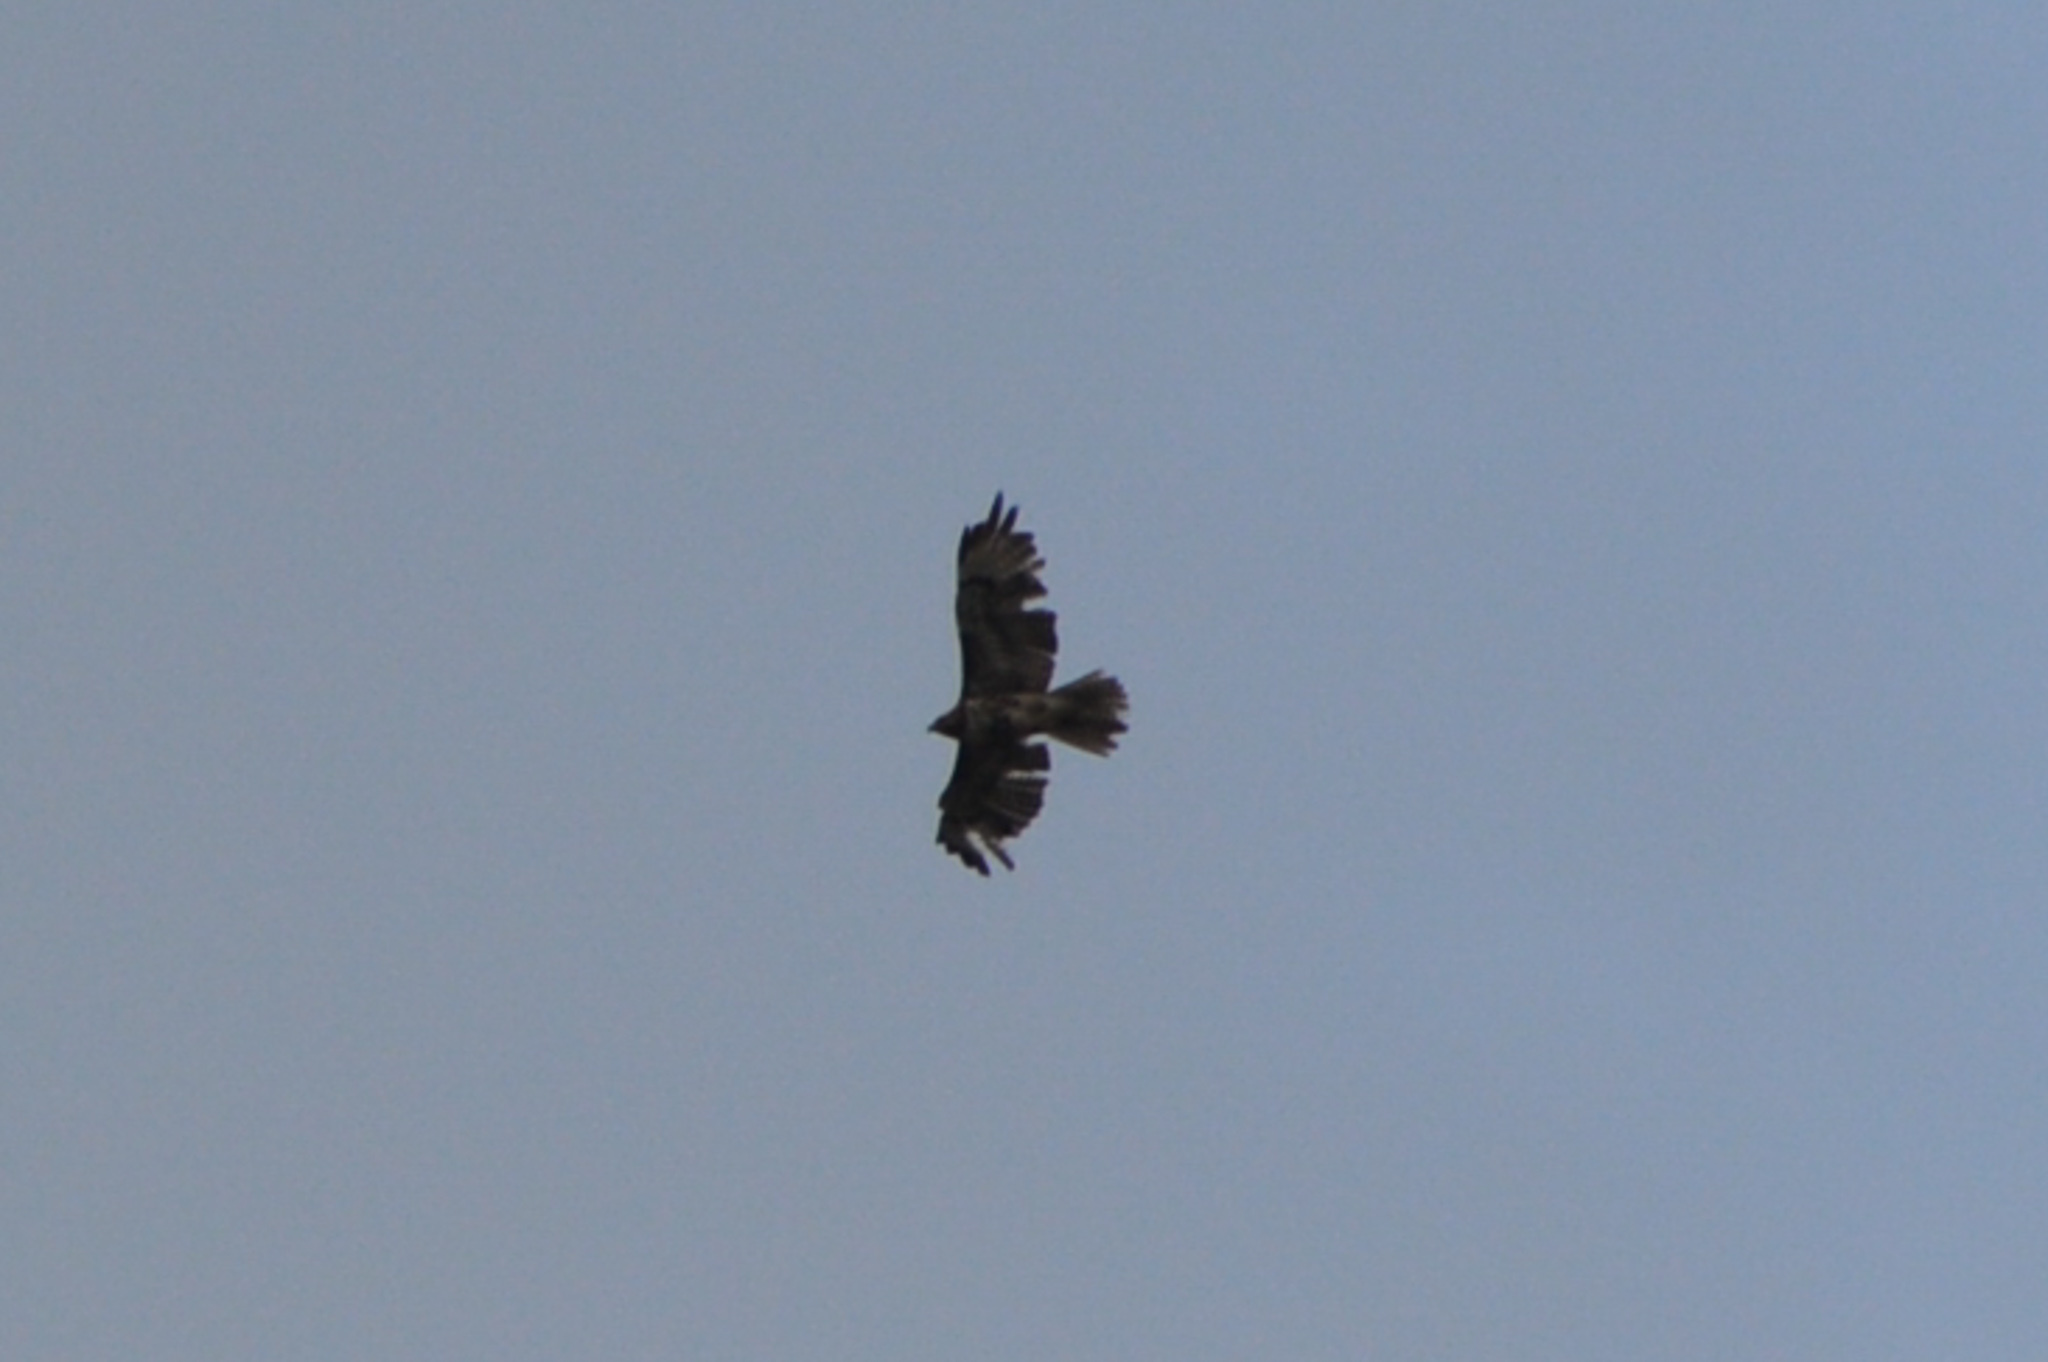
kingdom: Animalia
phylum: Chordata
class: Aves
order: Accipitriformes
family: Accipitridae
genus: Buteo
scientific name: Buteo jamaicensis
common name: Red-tailed hawk
